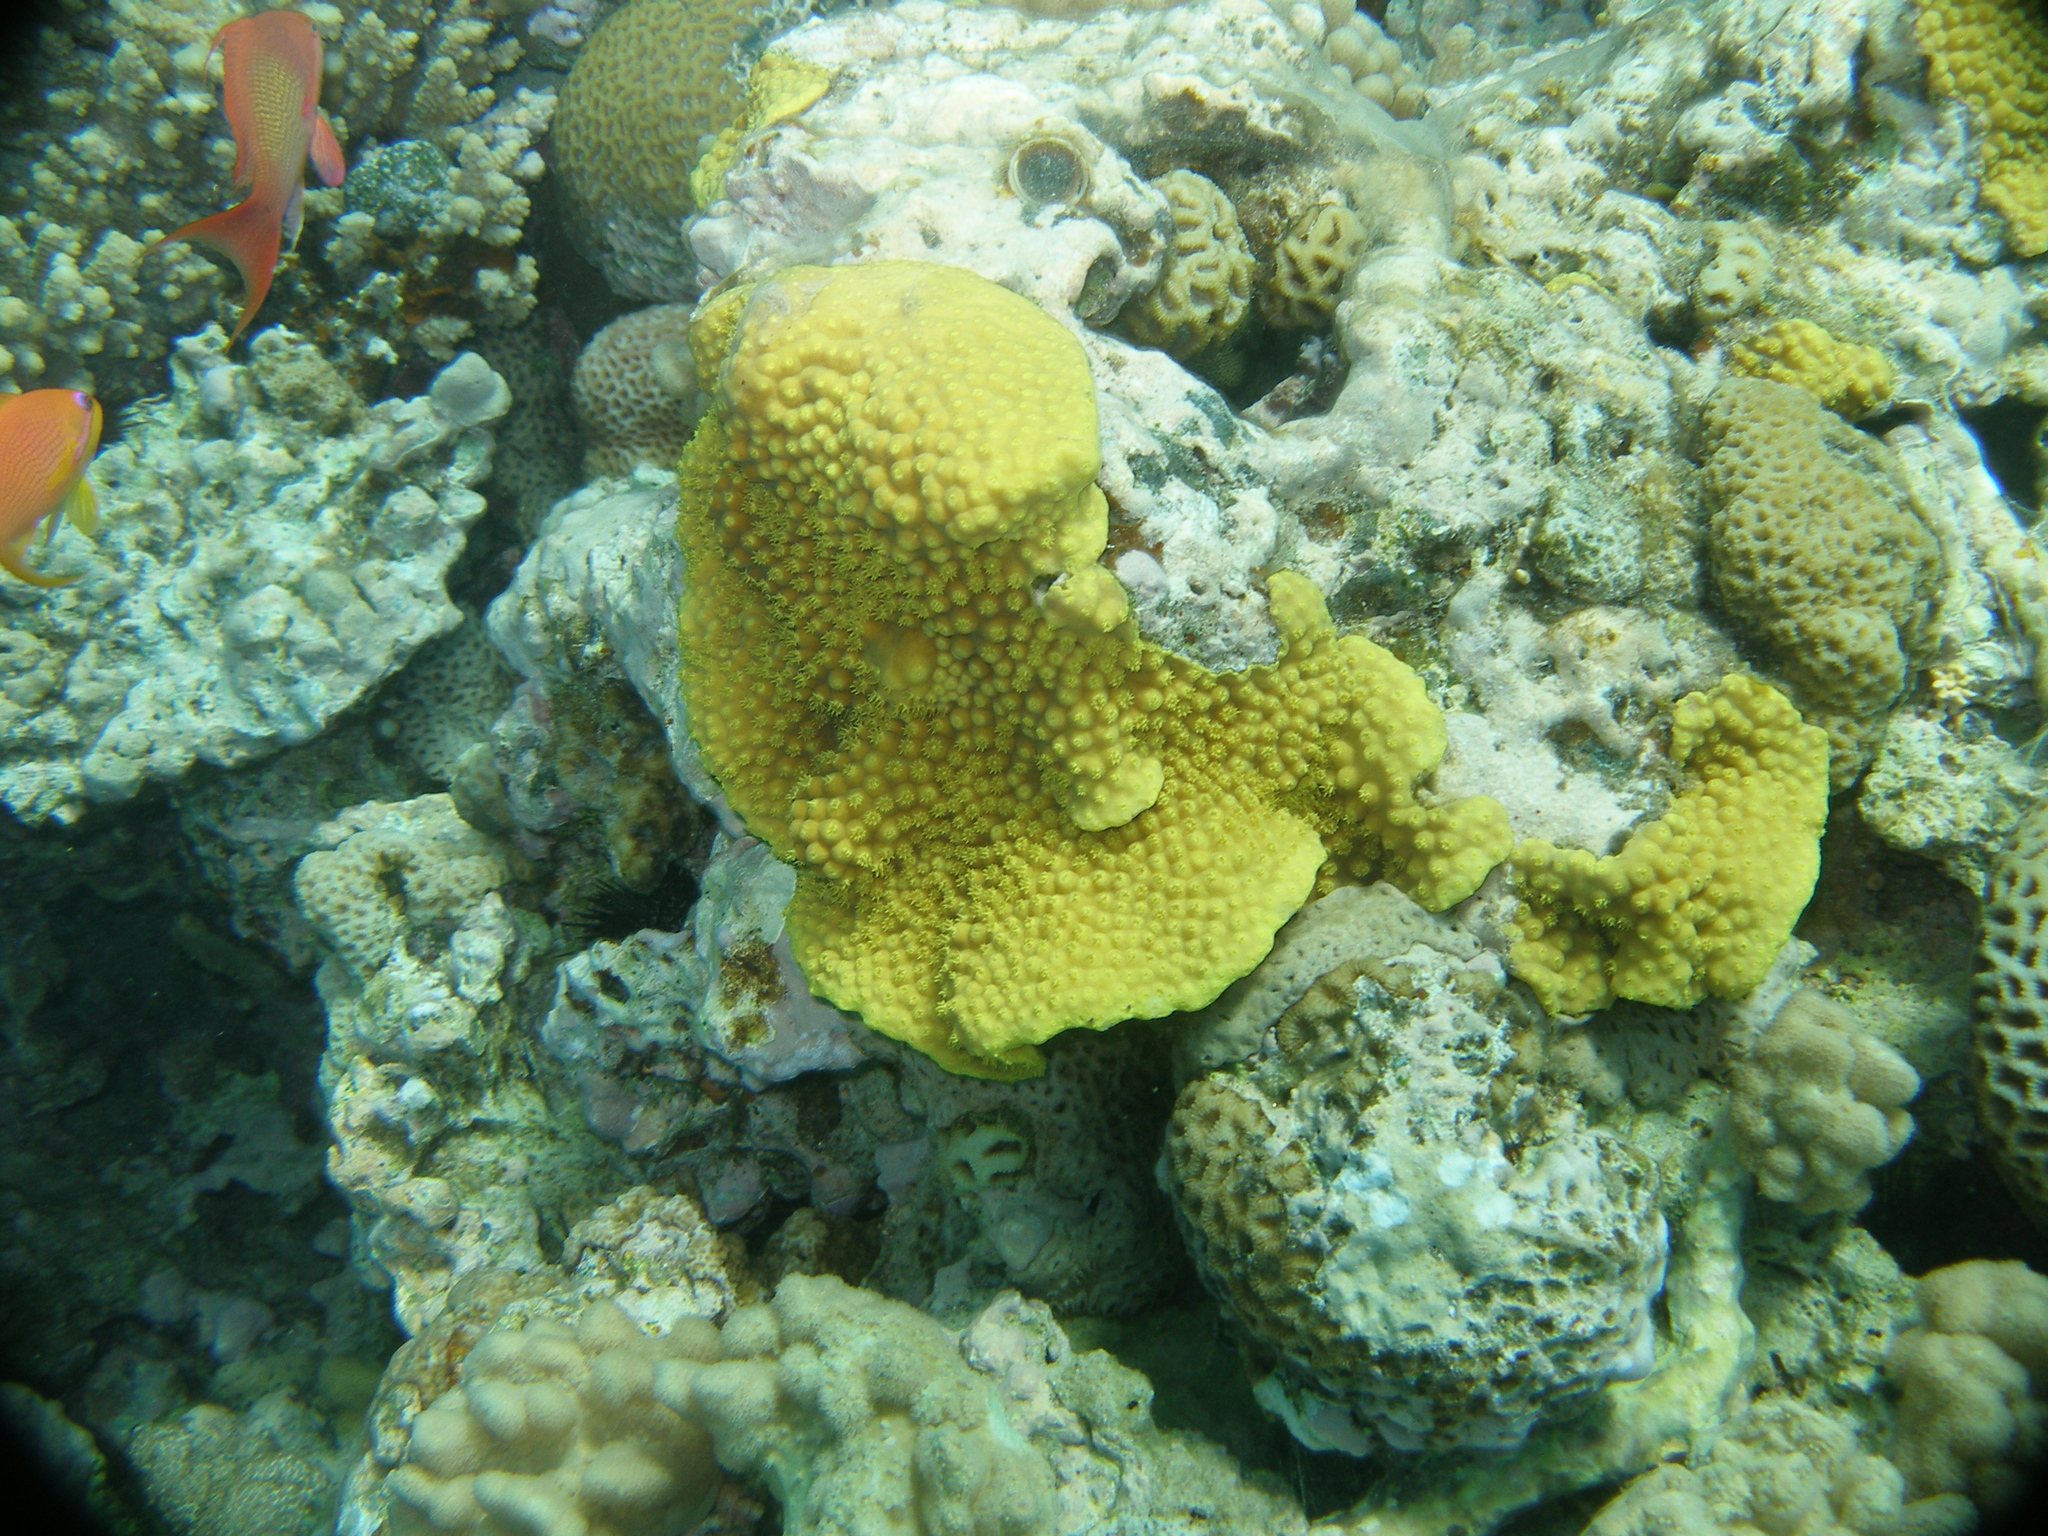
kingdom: Animalia
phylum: Cnidaria
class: Anthozoa
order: Scleractinia
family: Dendrophylliidae
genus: Turbinaria
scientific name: Turbinaria reniformis
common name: Disc coral
